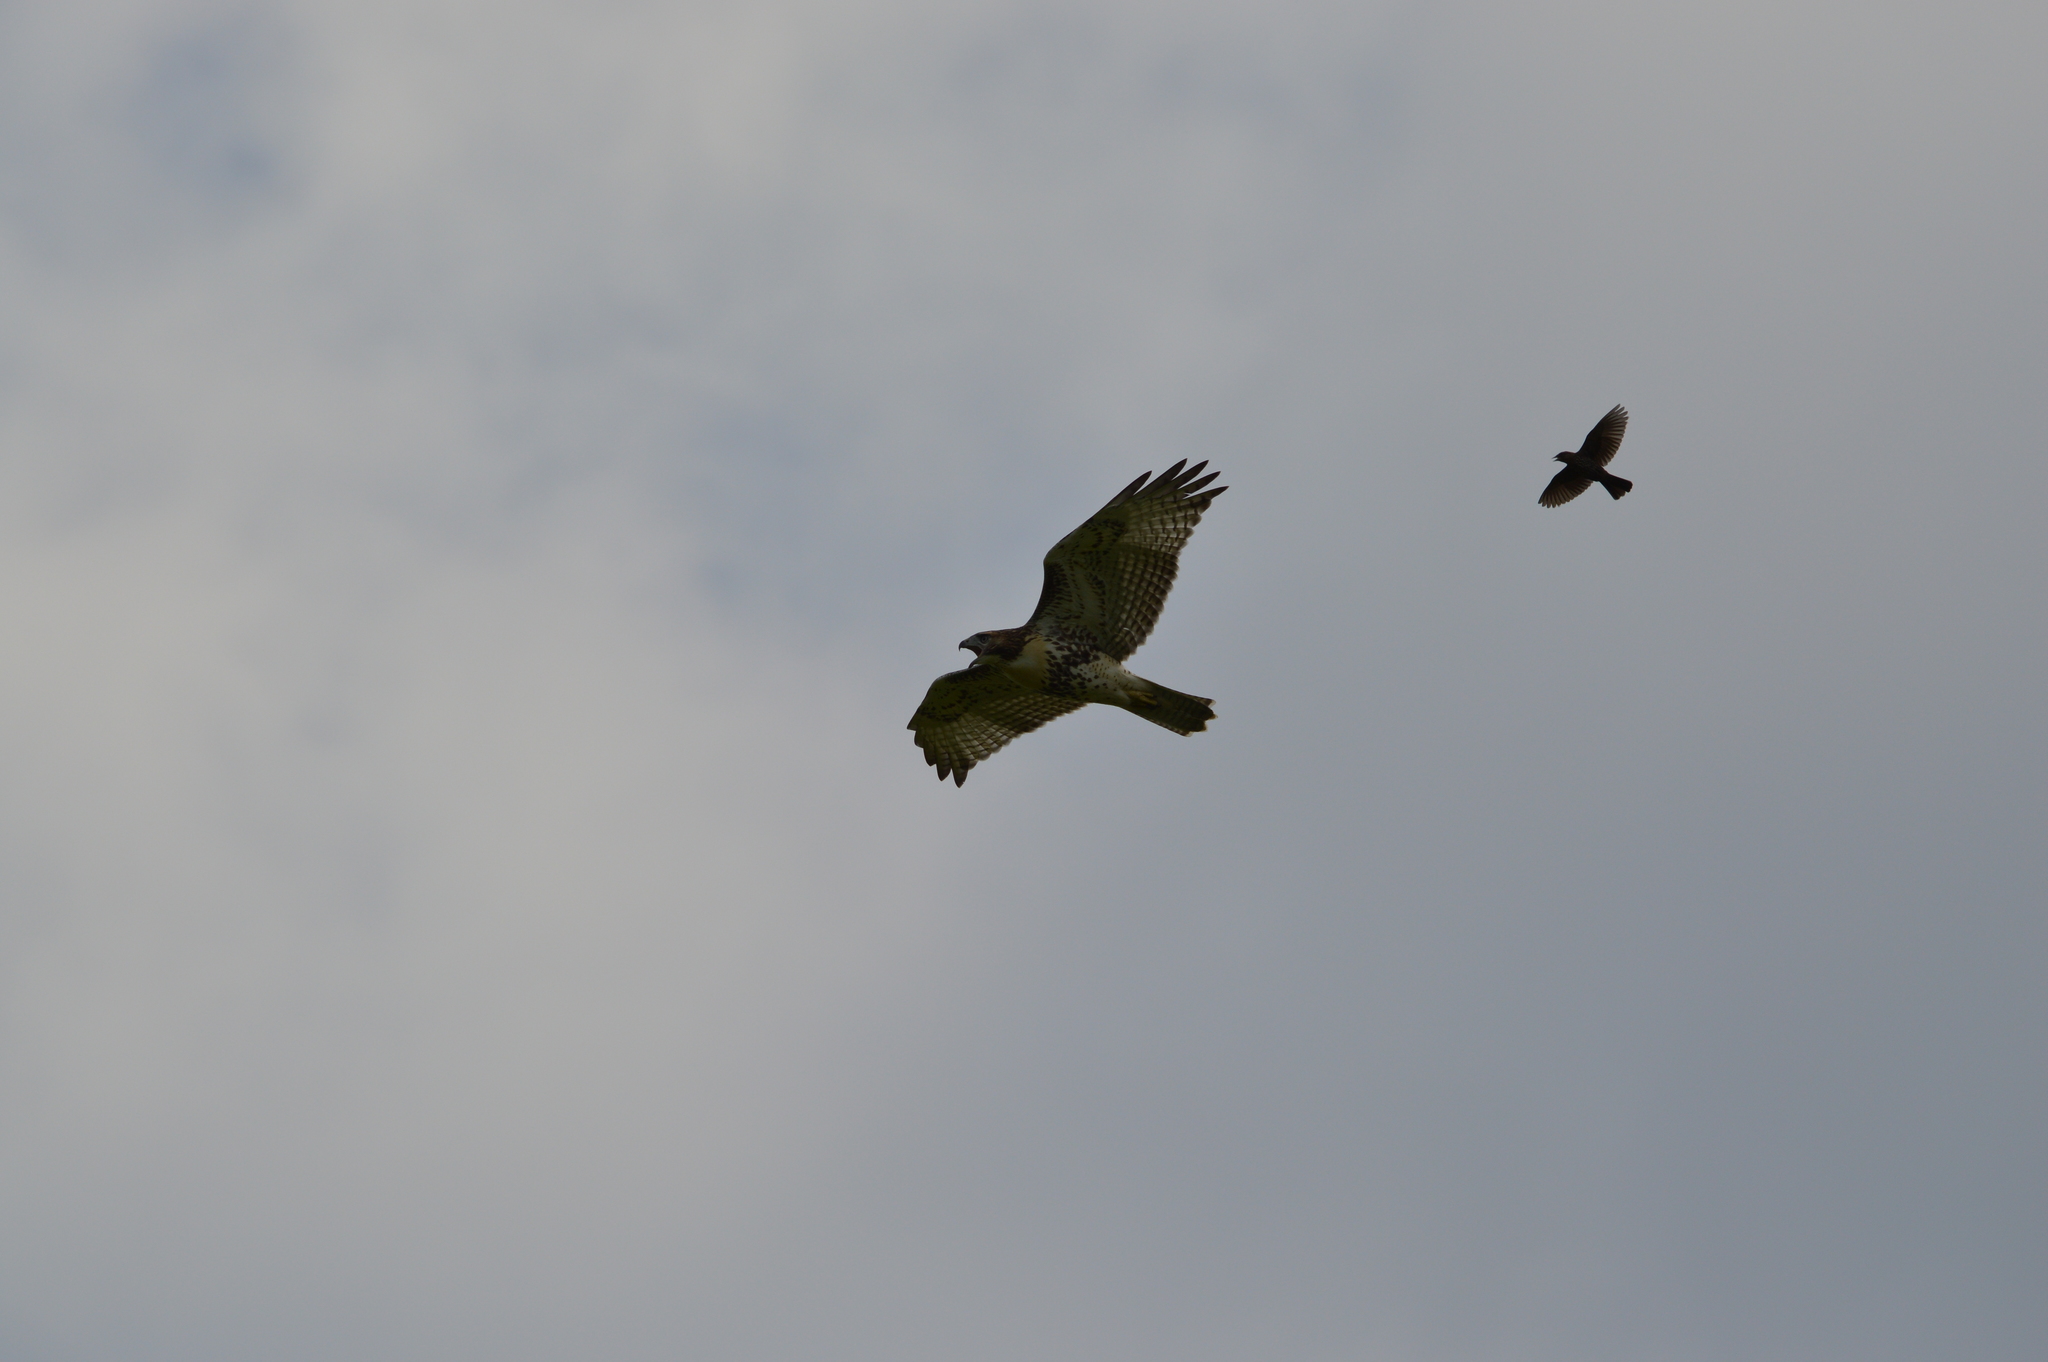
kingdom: Animalia
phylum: Chordata
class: Aves
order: Accipitriformes
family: Accipitridae
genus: Buteo
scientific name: Buteo jamaicensis
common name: Red-tailed hawk
